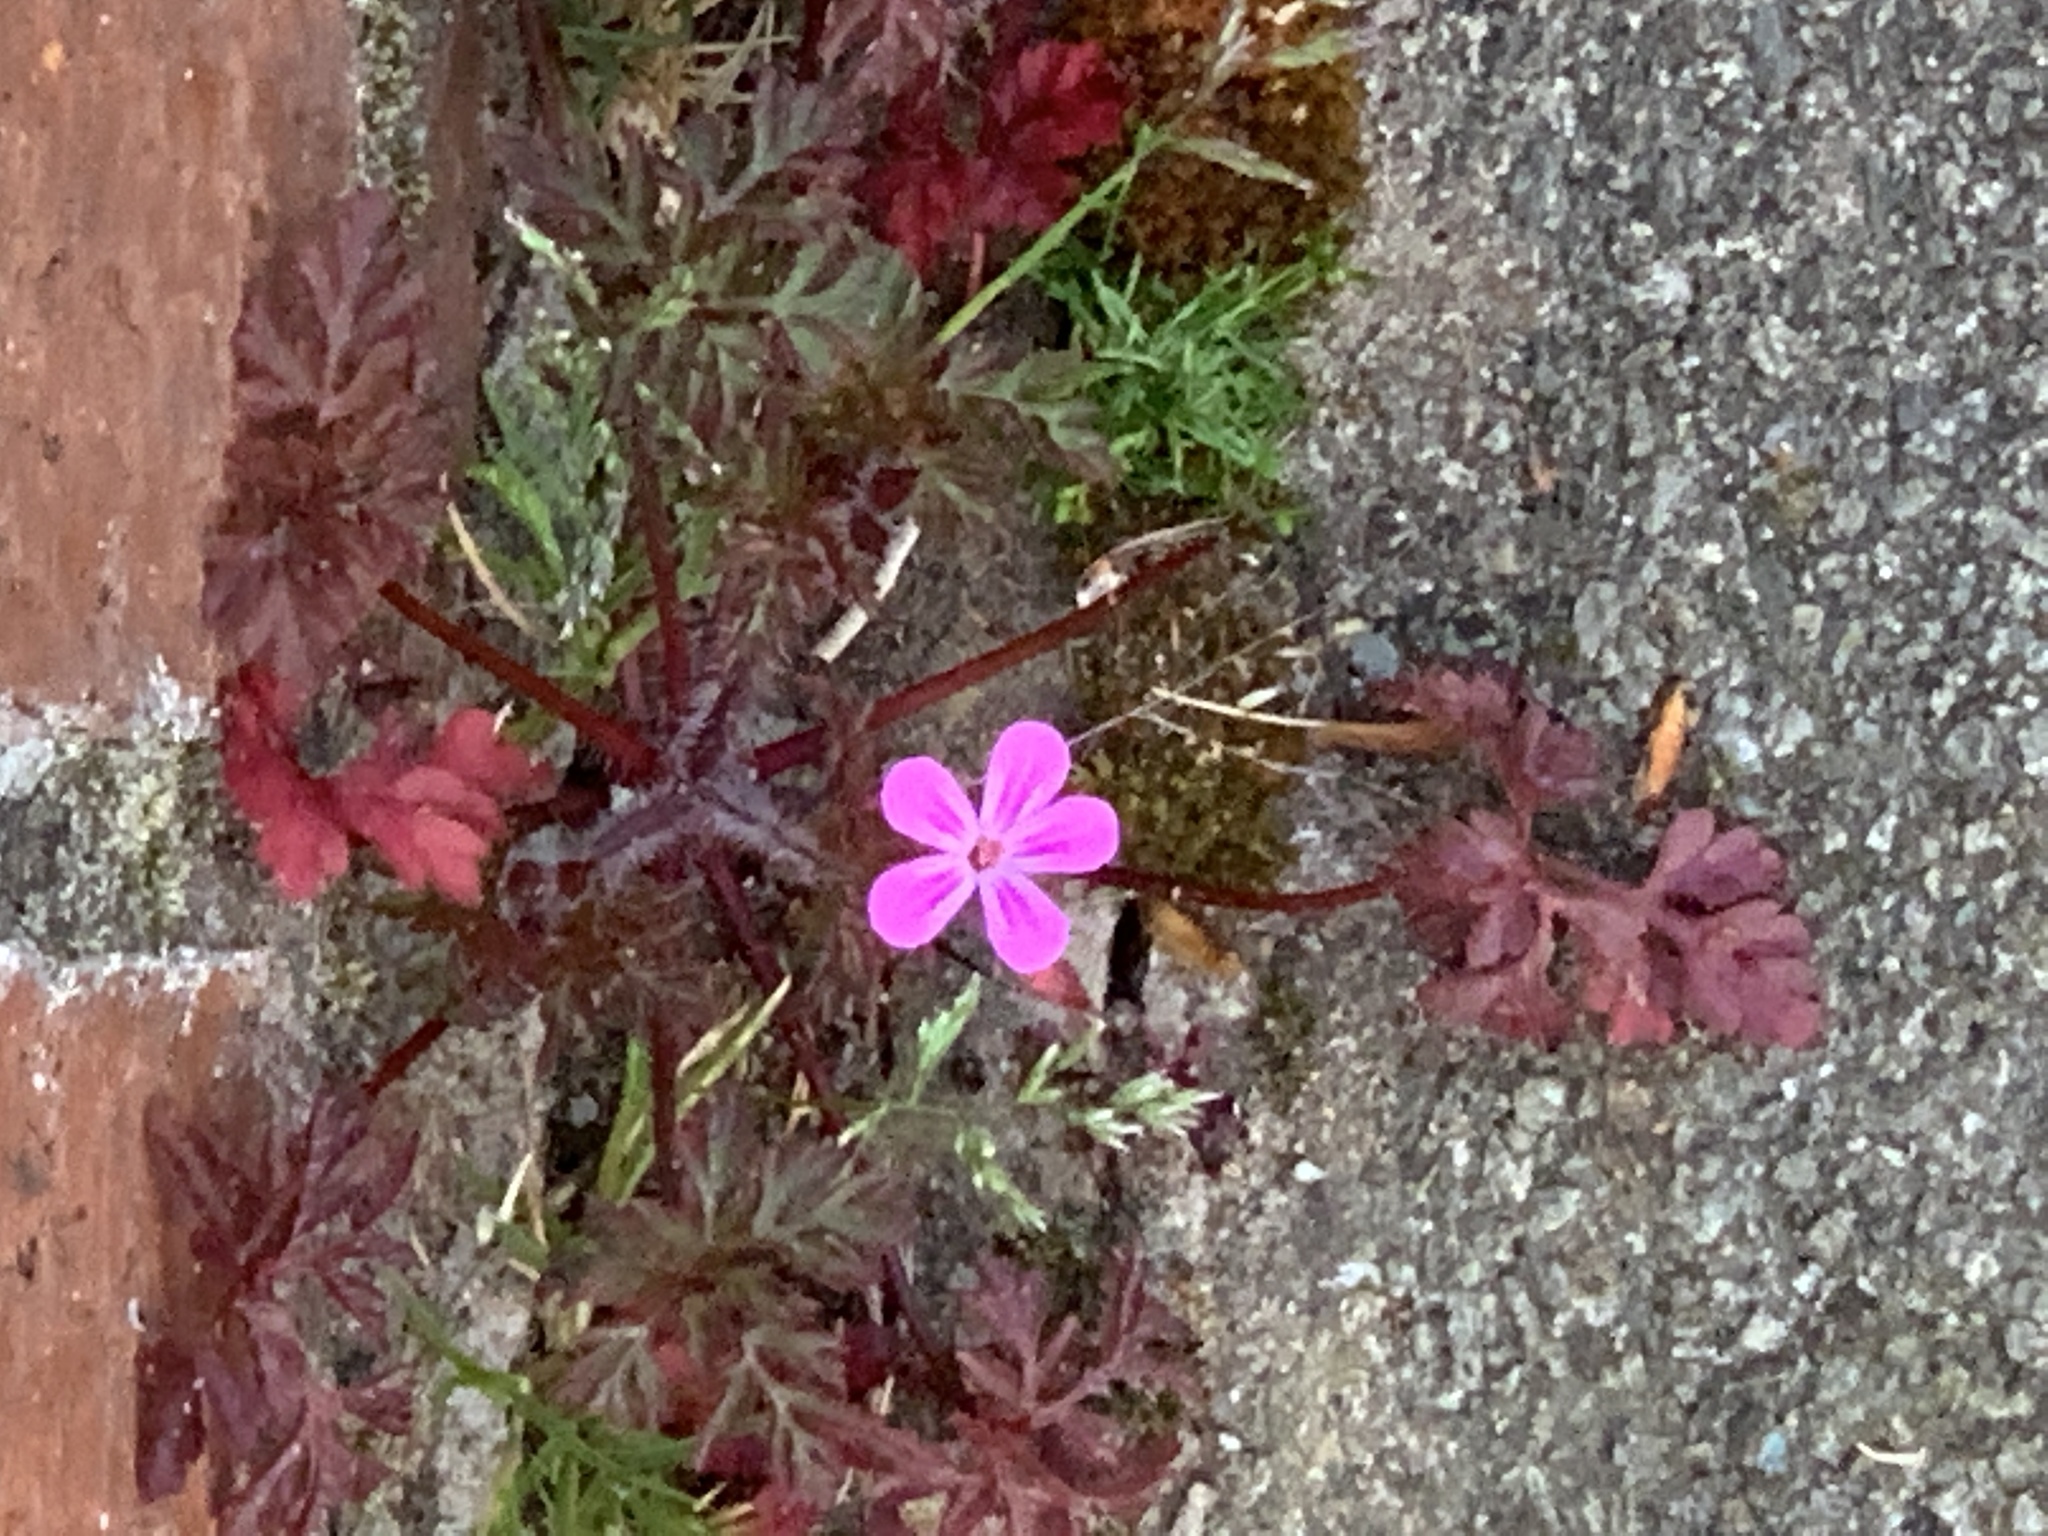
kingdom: Plantae
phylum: Tracheophyta
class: Magnoliopsida
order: Geraniales
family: Geraniaceae
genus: Geranium
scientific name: Geranium robertianum
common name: Herb-robert
